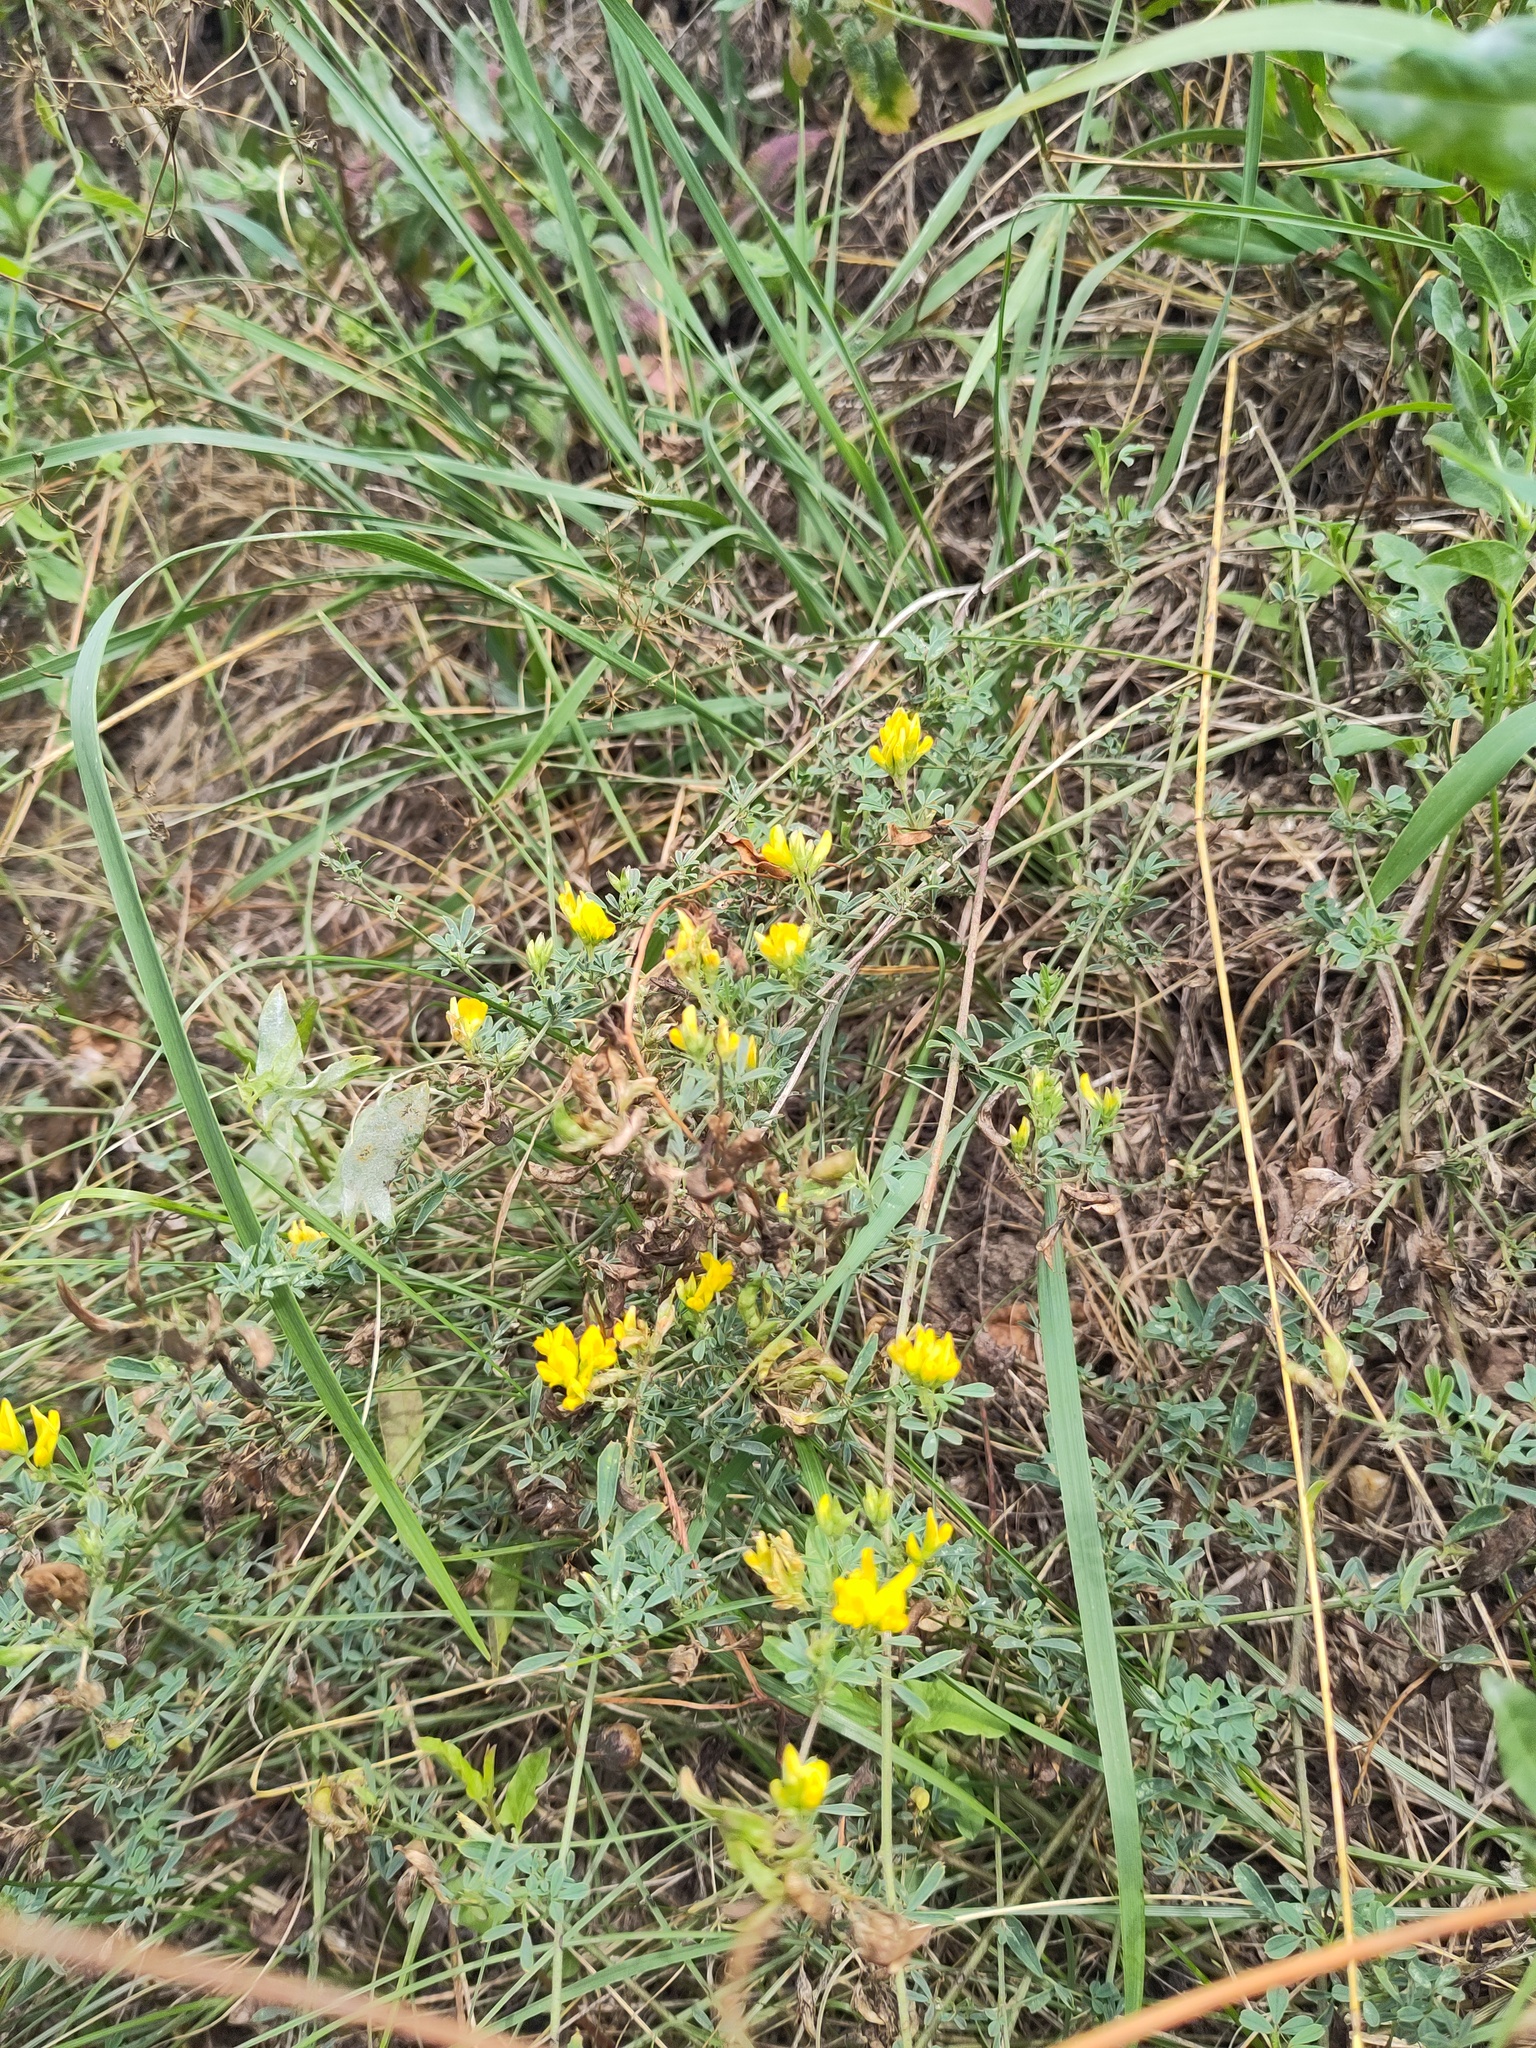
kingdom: Plantae
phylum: Tracheophyta
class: Magnoliopsida
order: Fabales
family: Fabaceae
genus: Medicago
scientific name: Medicago falcata
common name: Sickle medick
